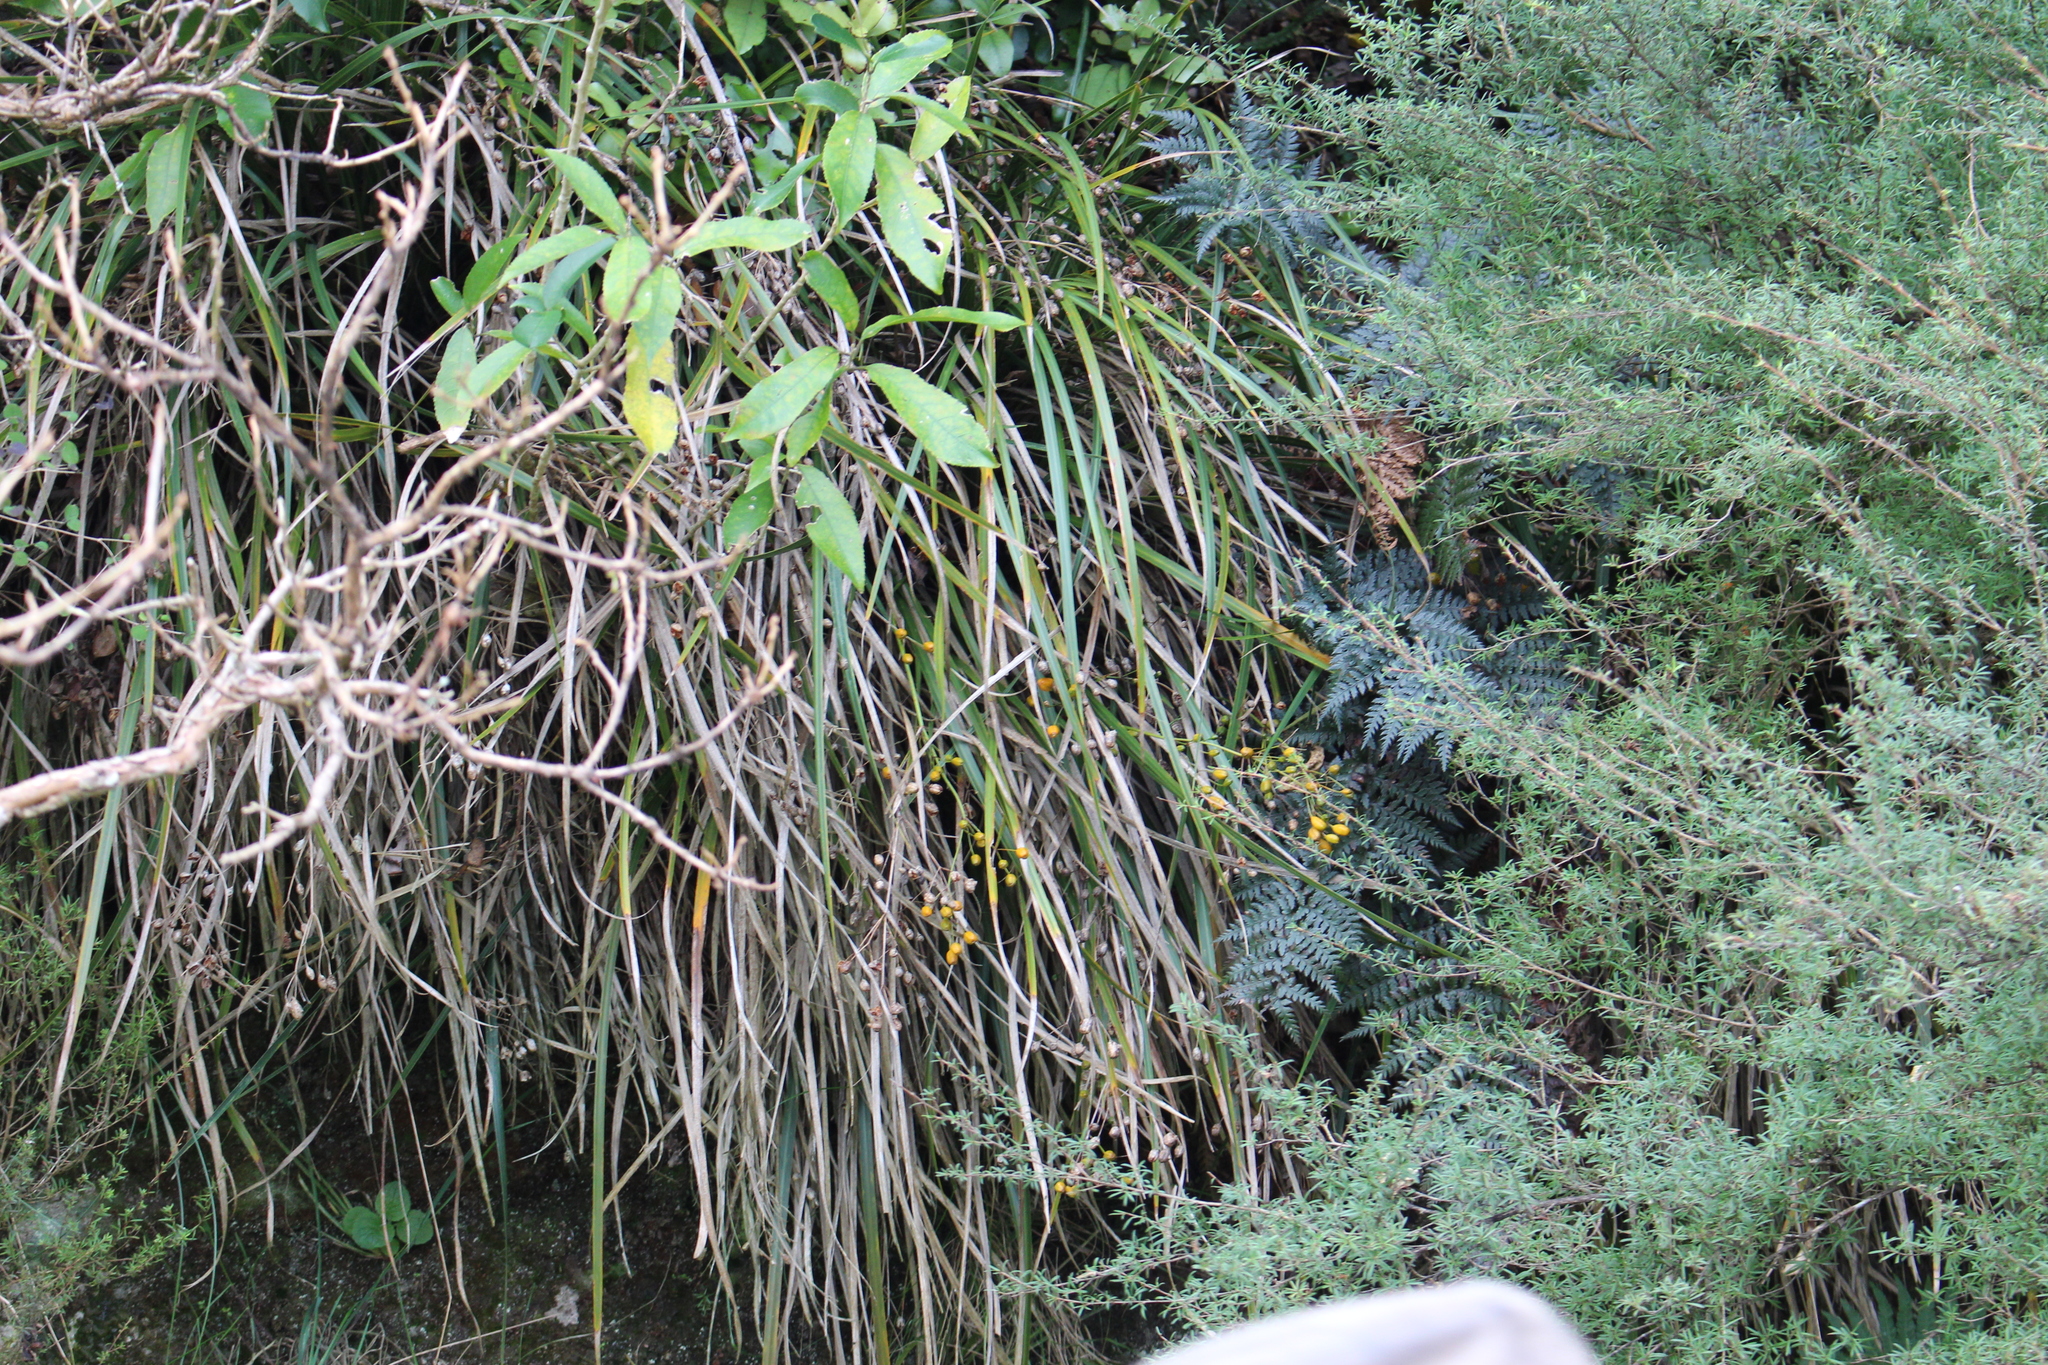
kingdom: Plantae
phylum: Tracheophyta
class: Liliopsida
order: Asparagales
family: Iridaceae
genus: Libertia
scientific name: Libertia ixioides
